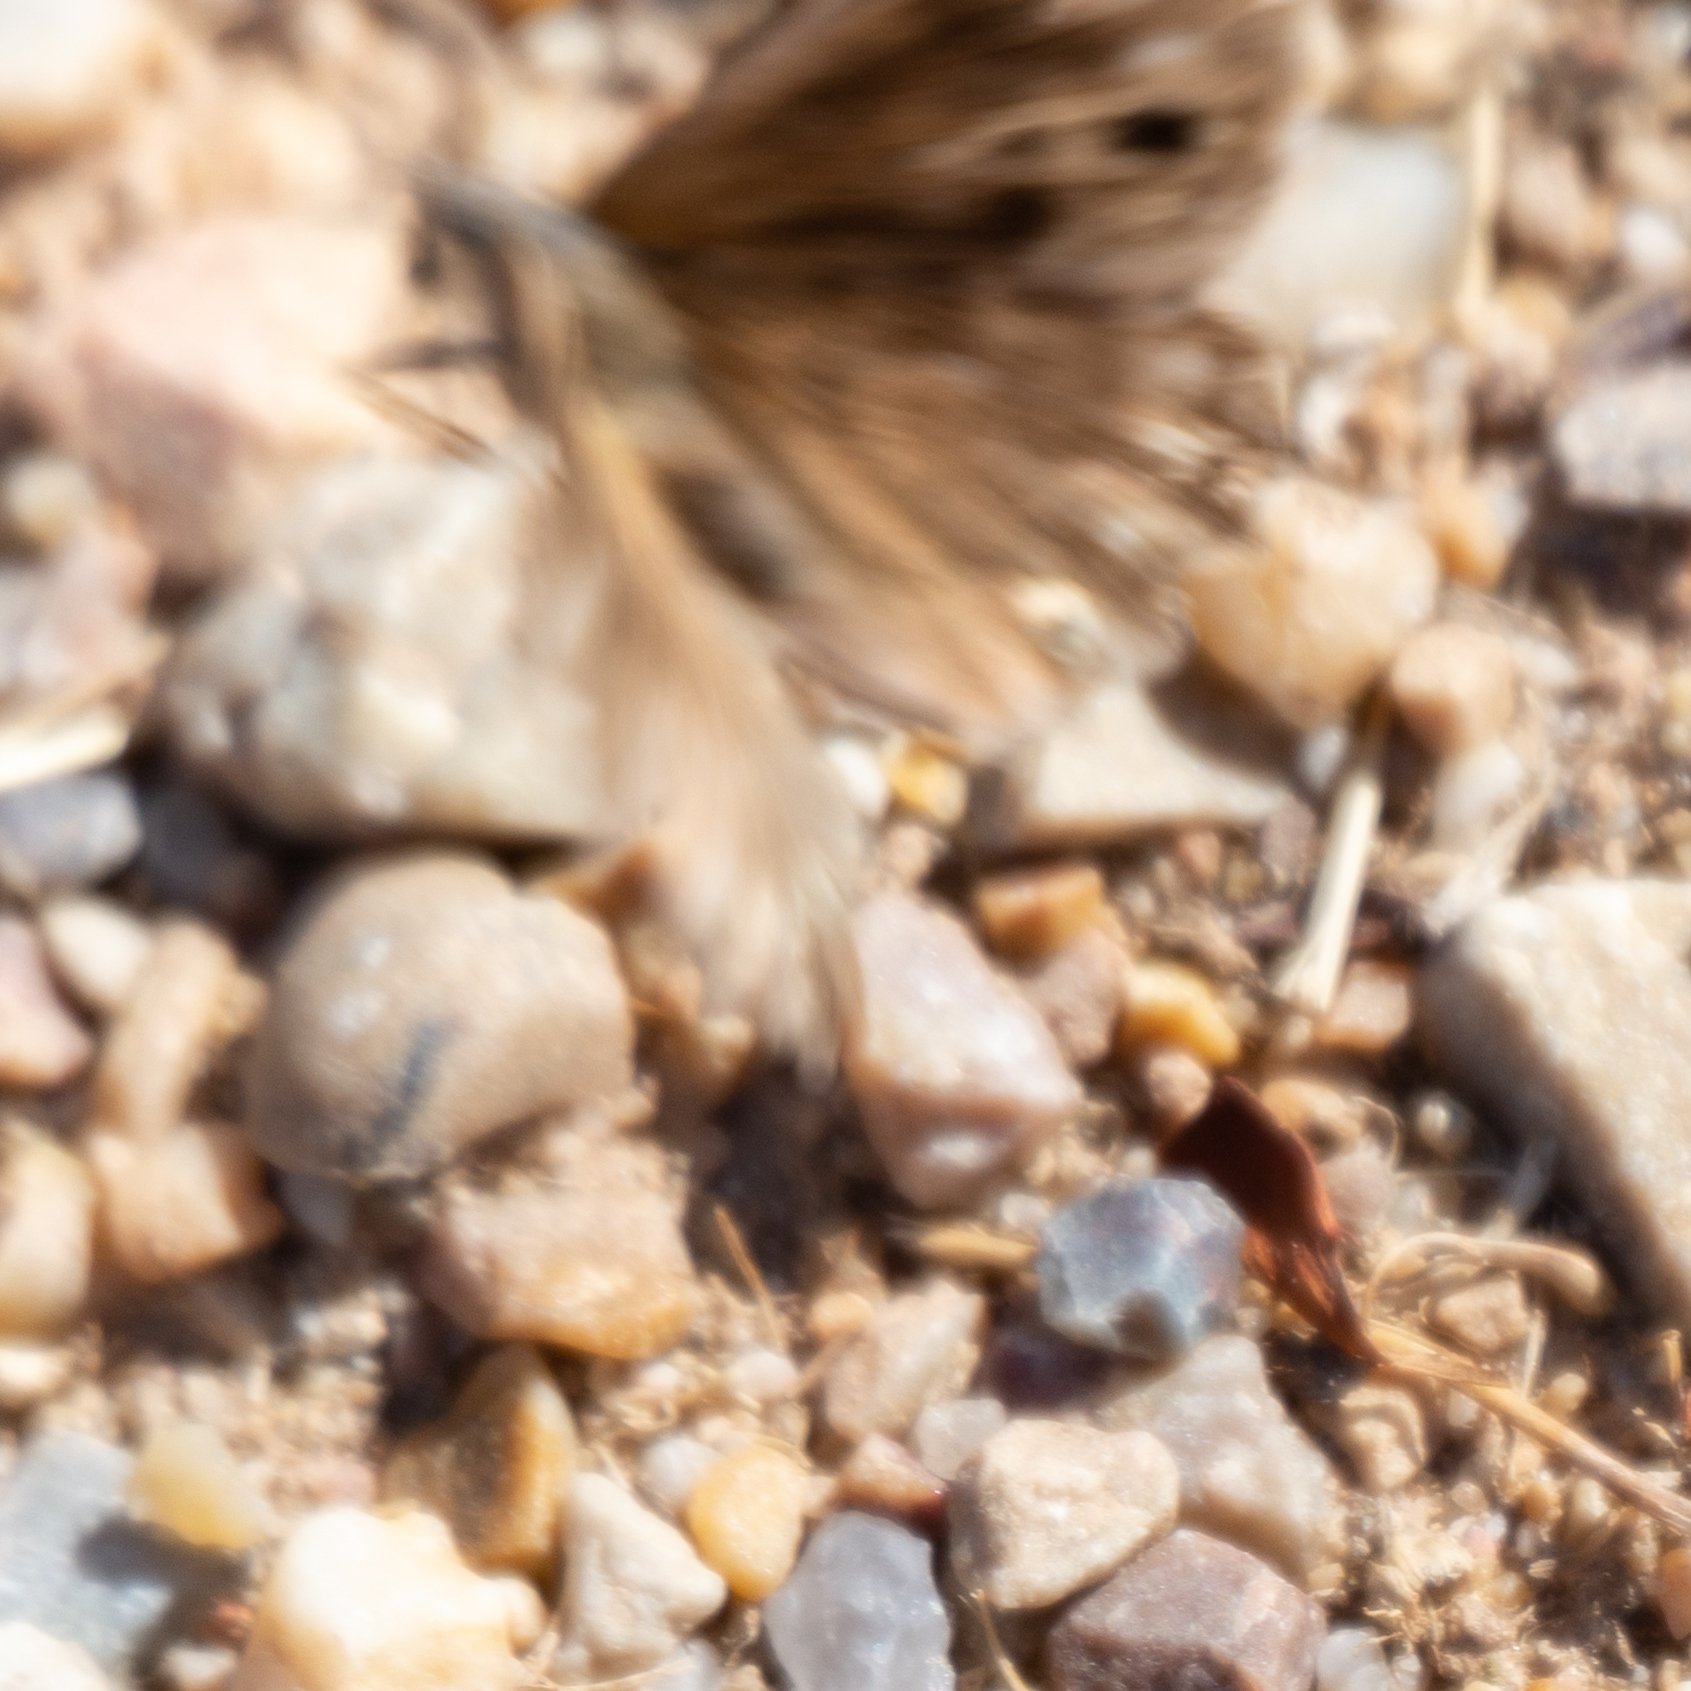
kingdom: Animalia
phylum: Arthropoda
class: Insecta
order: Lepidoptera
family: Nymphalidae
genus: Satyrus
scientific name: Satyrus briseis
